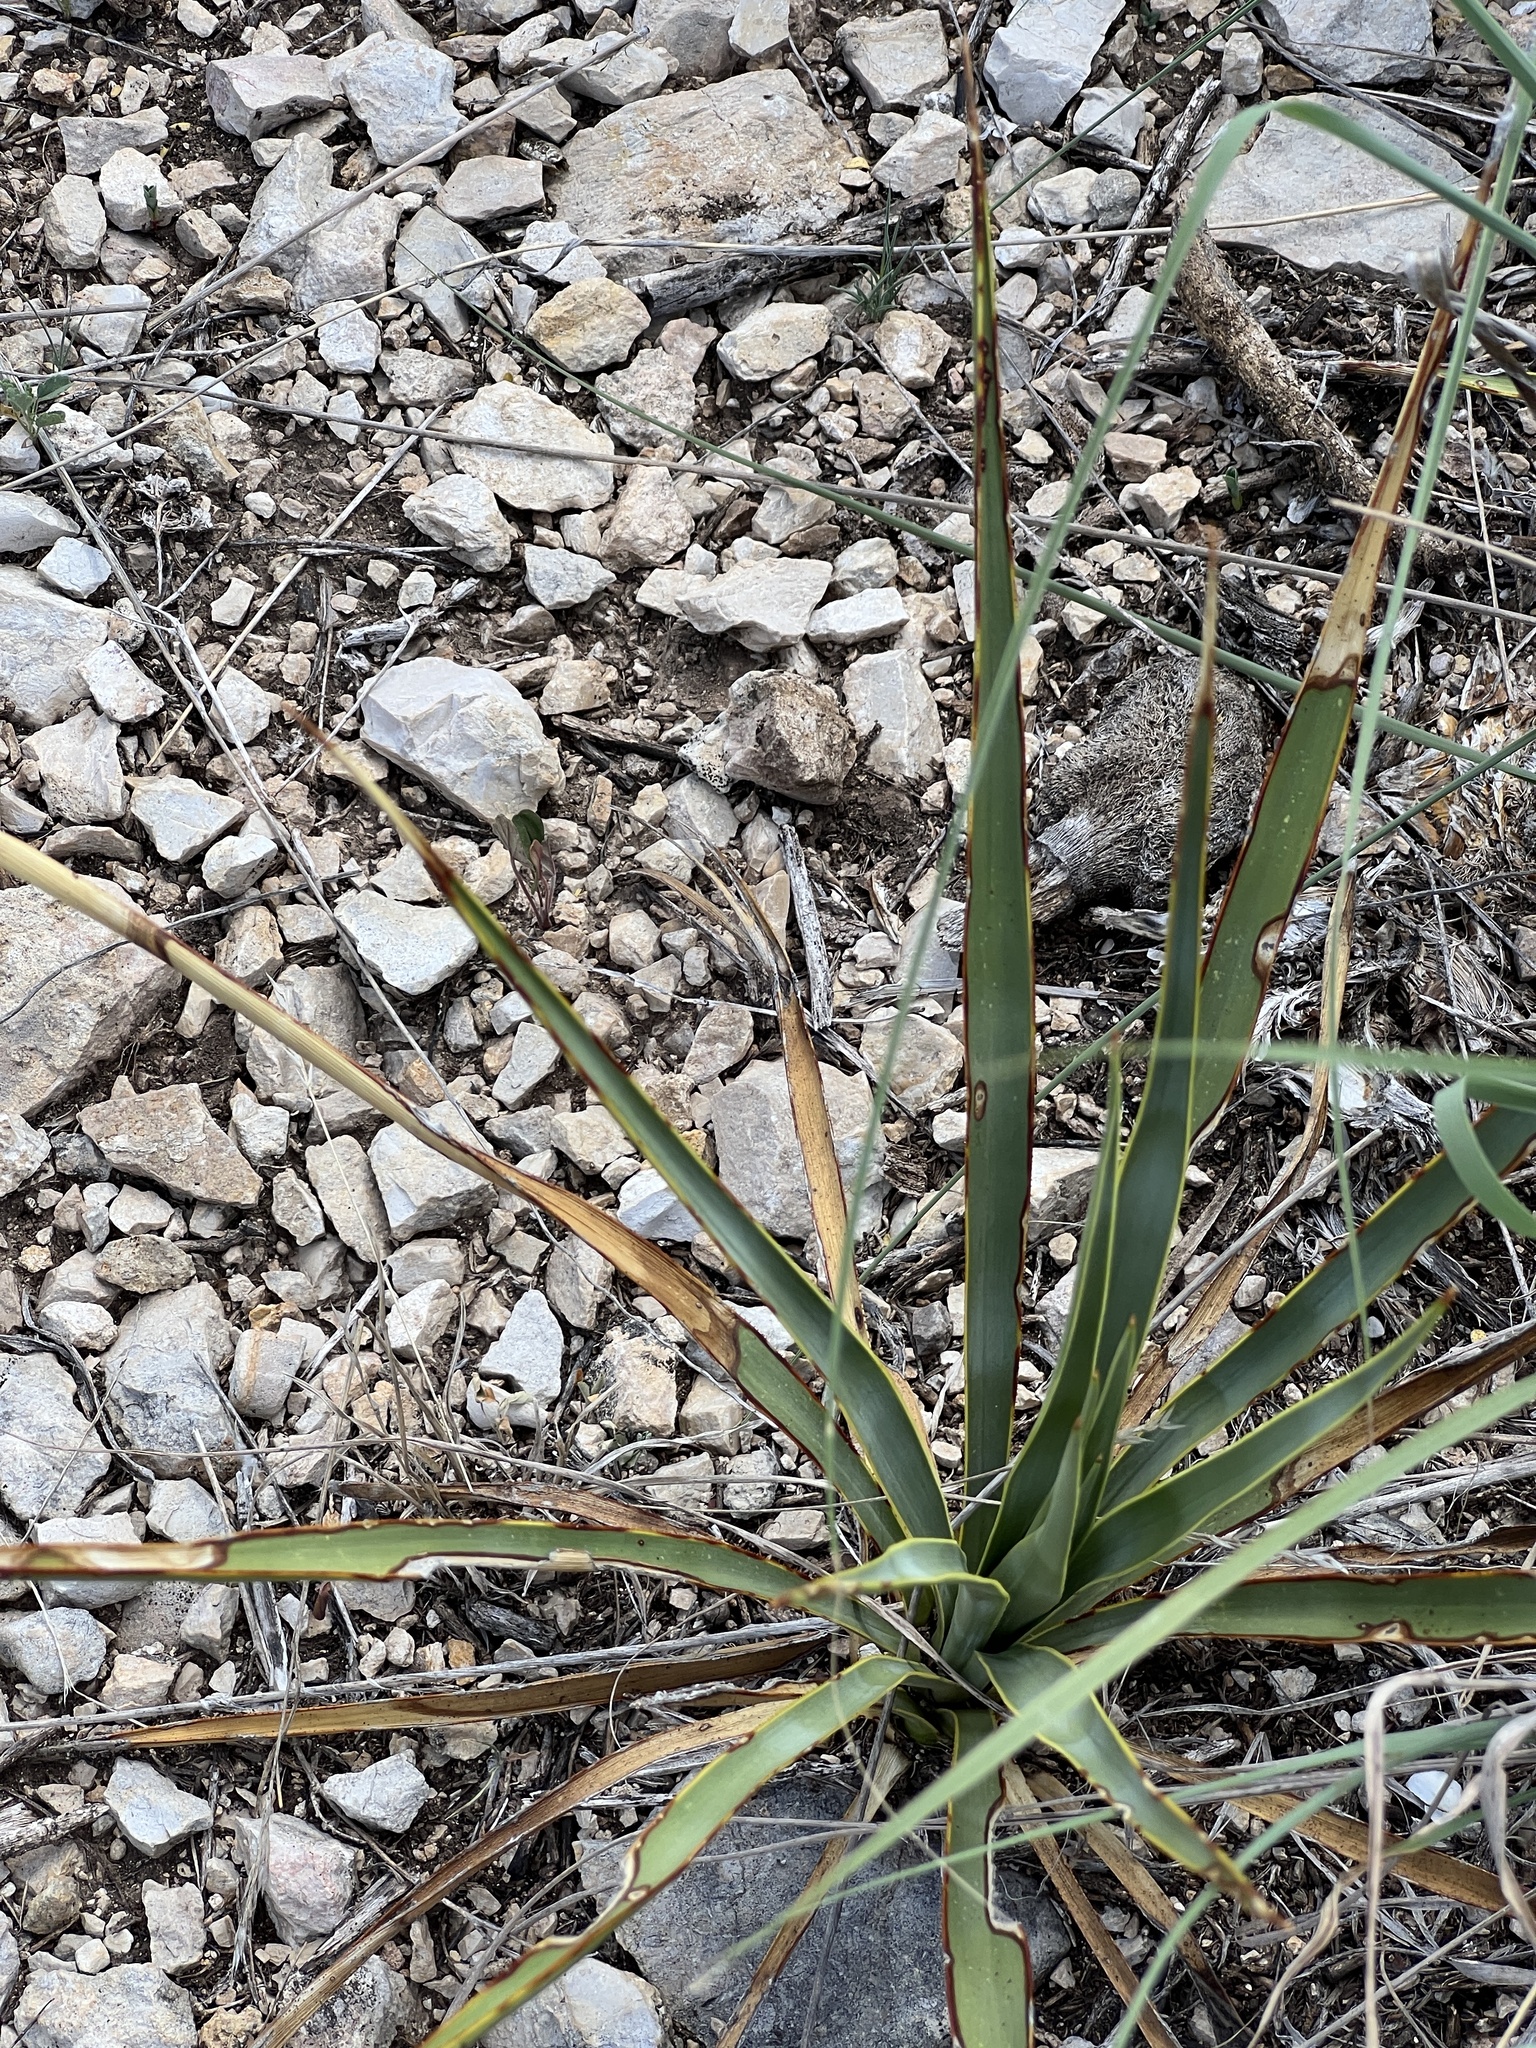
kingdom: Plantae
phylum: Tracheophyta
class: Liliopsida
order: Asparagales
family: Asparagaceae
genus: Yucca
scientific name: Yucca reverchonii
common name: San angelo yucca
